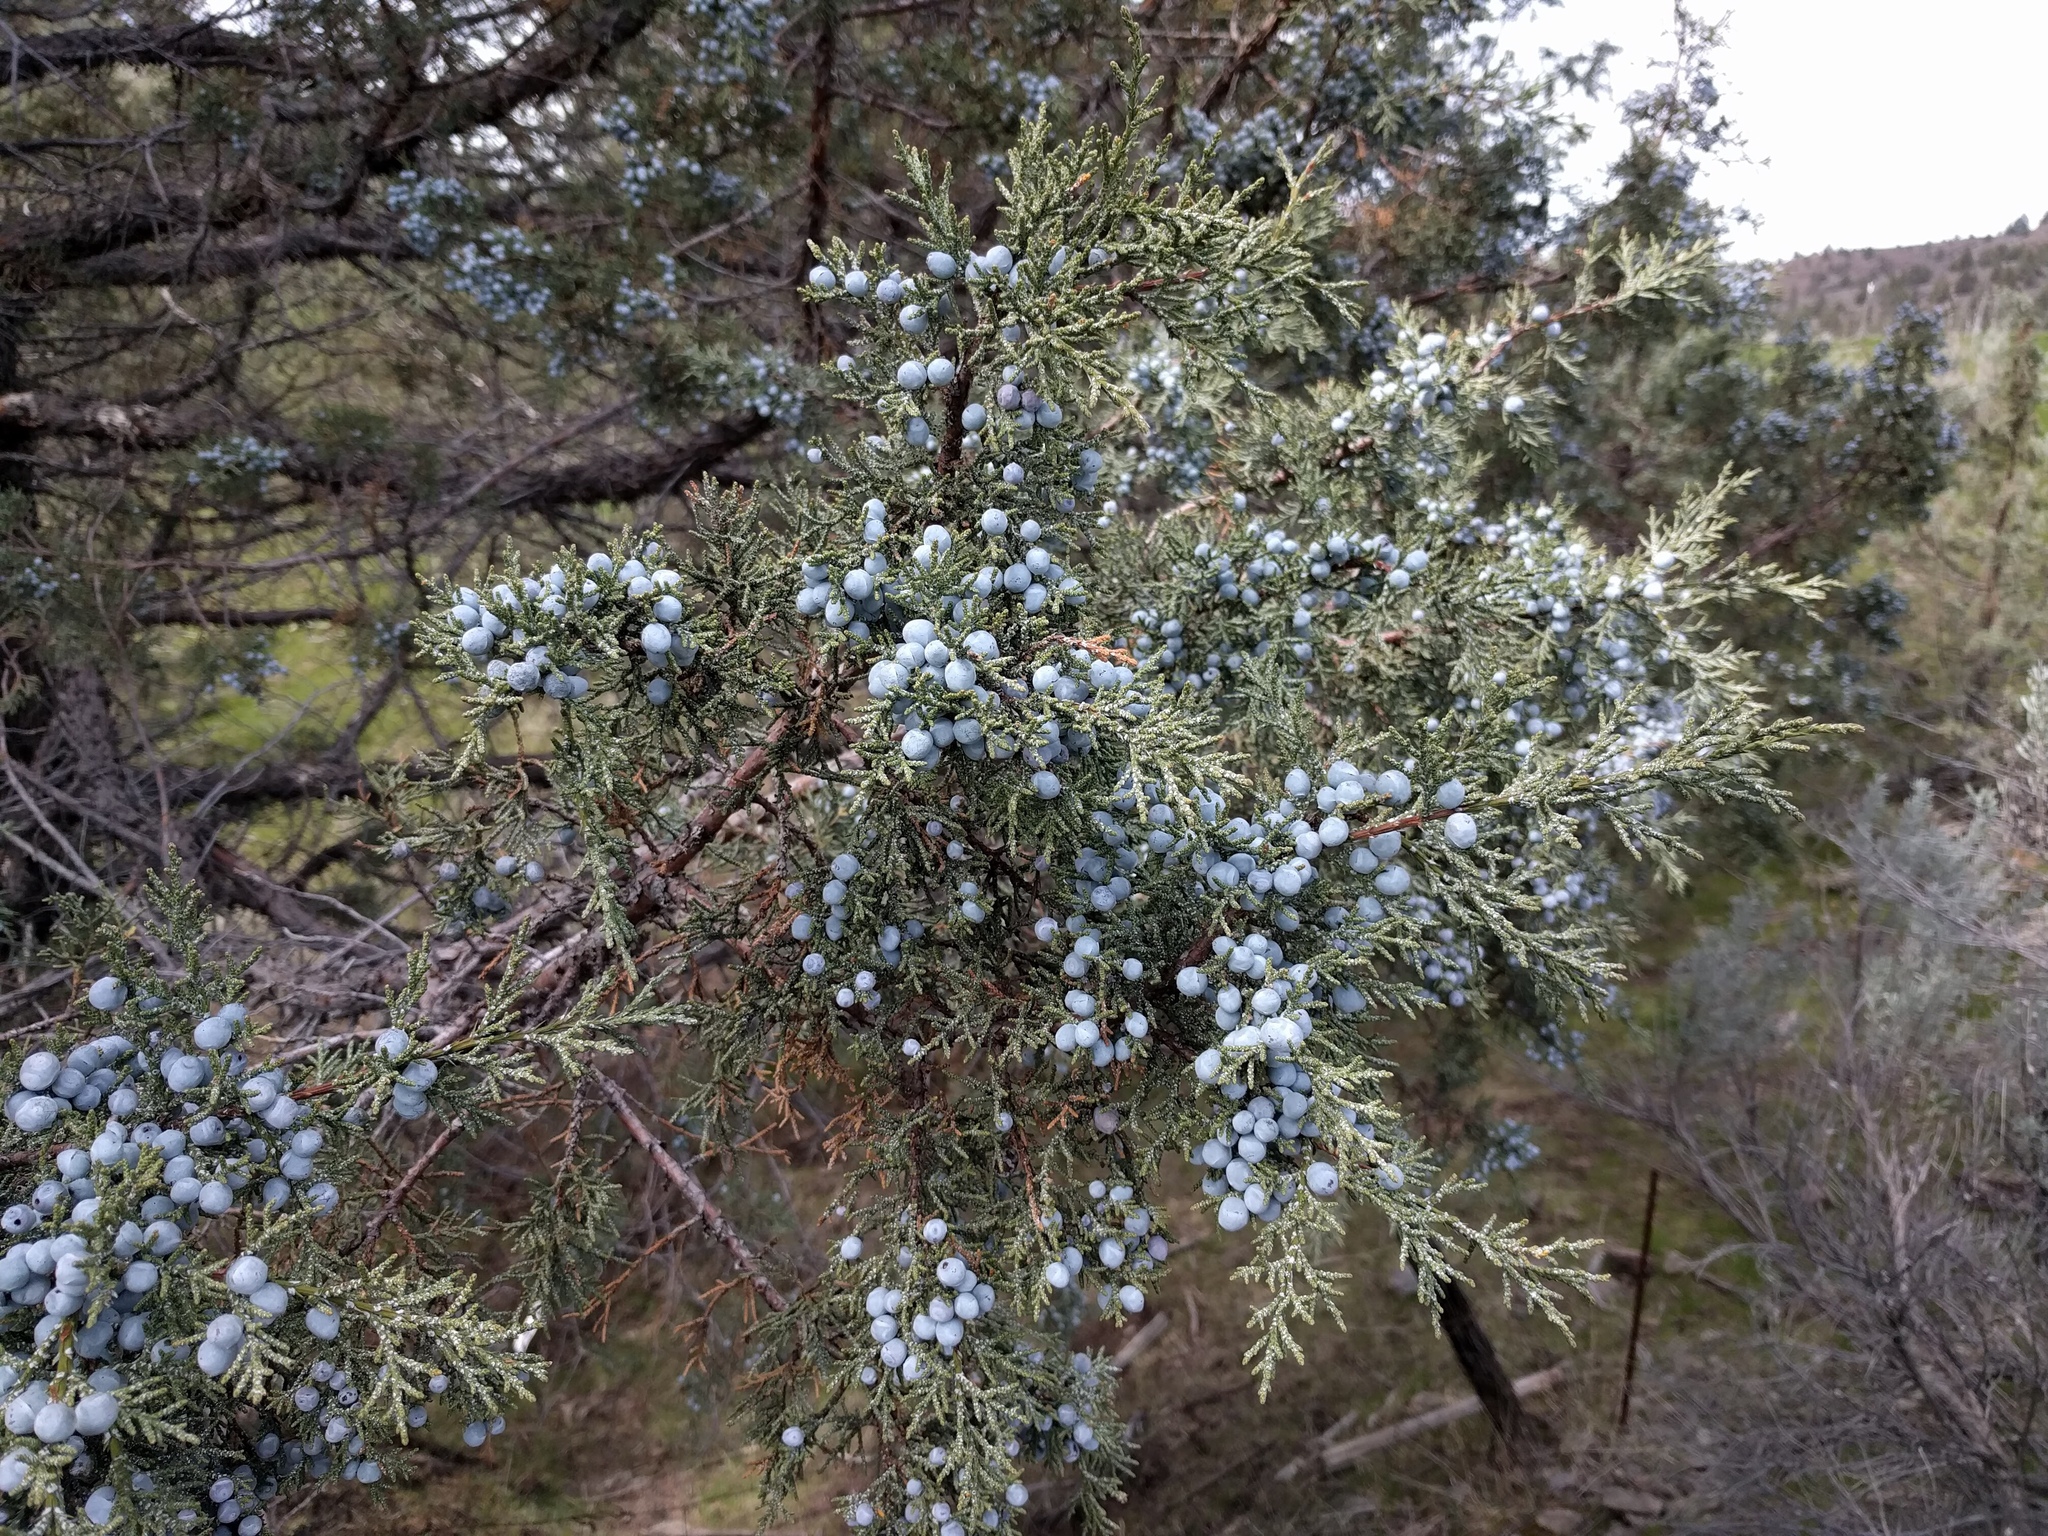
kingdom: Plantae
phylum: Tracheophyta
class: Pinopsida
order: Pinales
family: Cupressaceae
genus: Juniperus
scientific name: Juniperus occidentalis
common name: Western juniper
